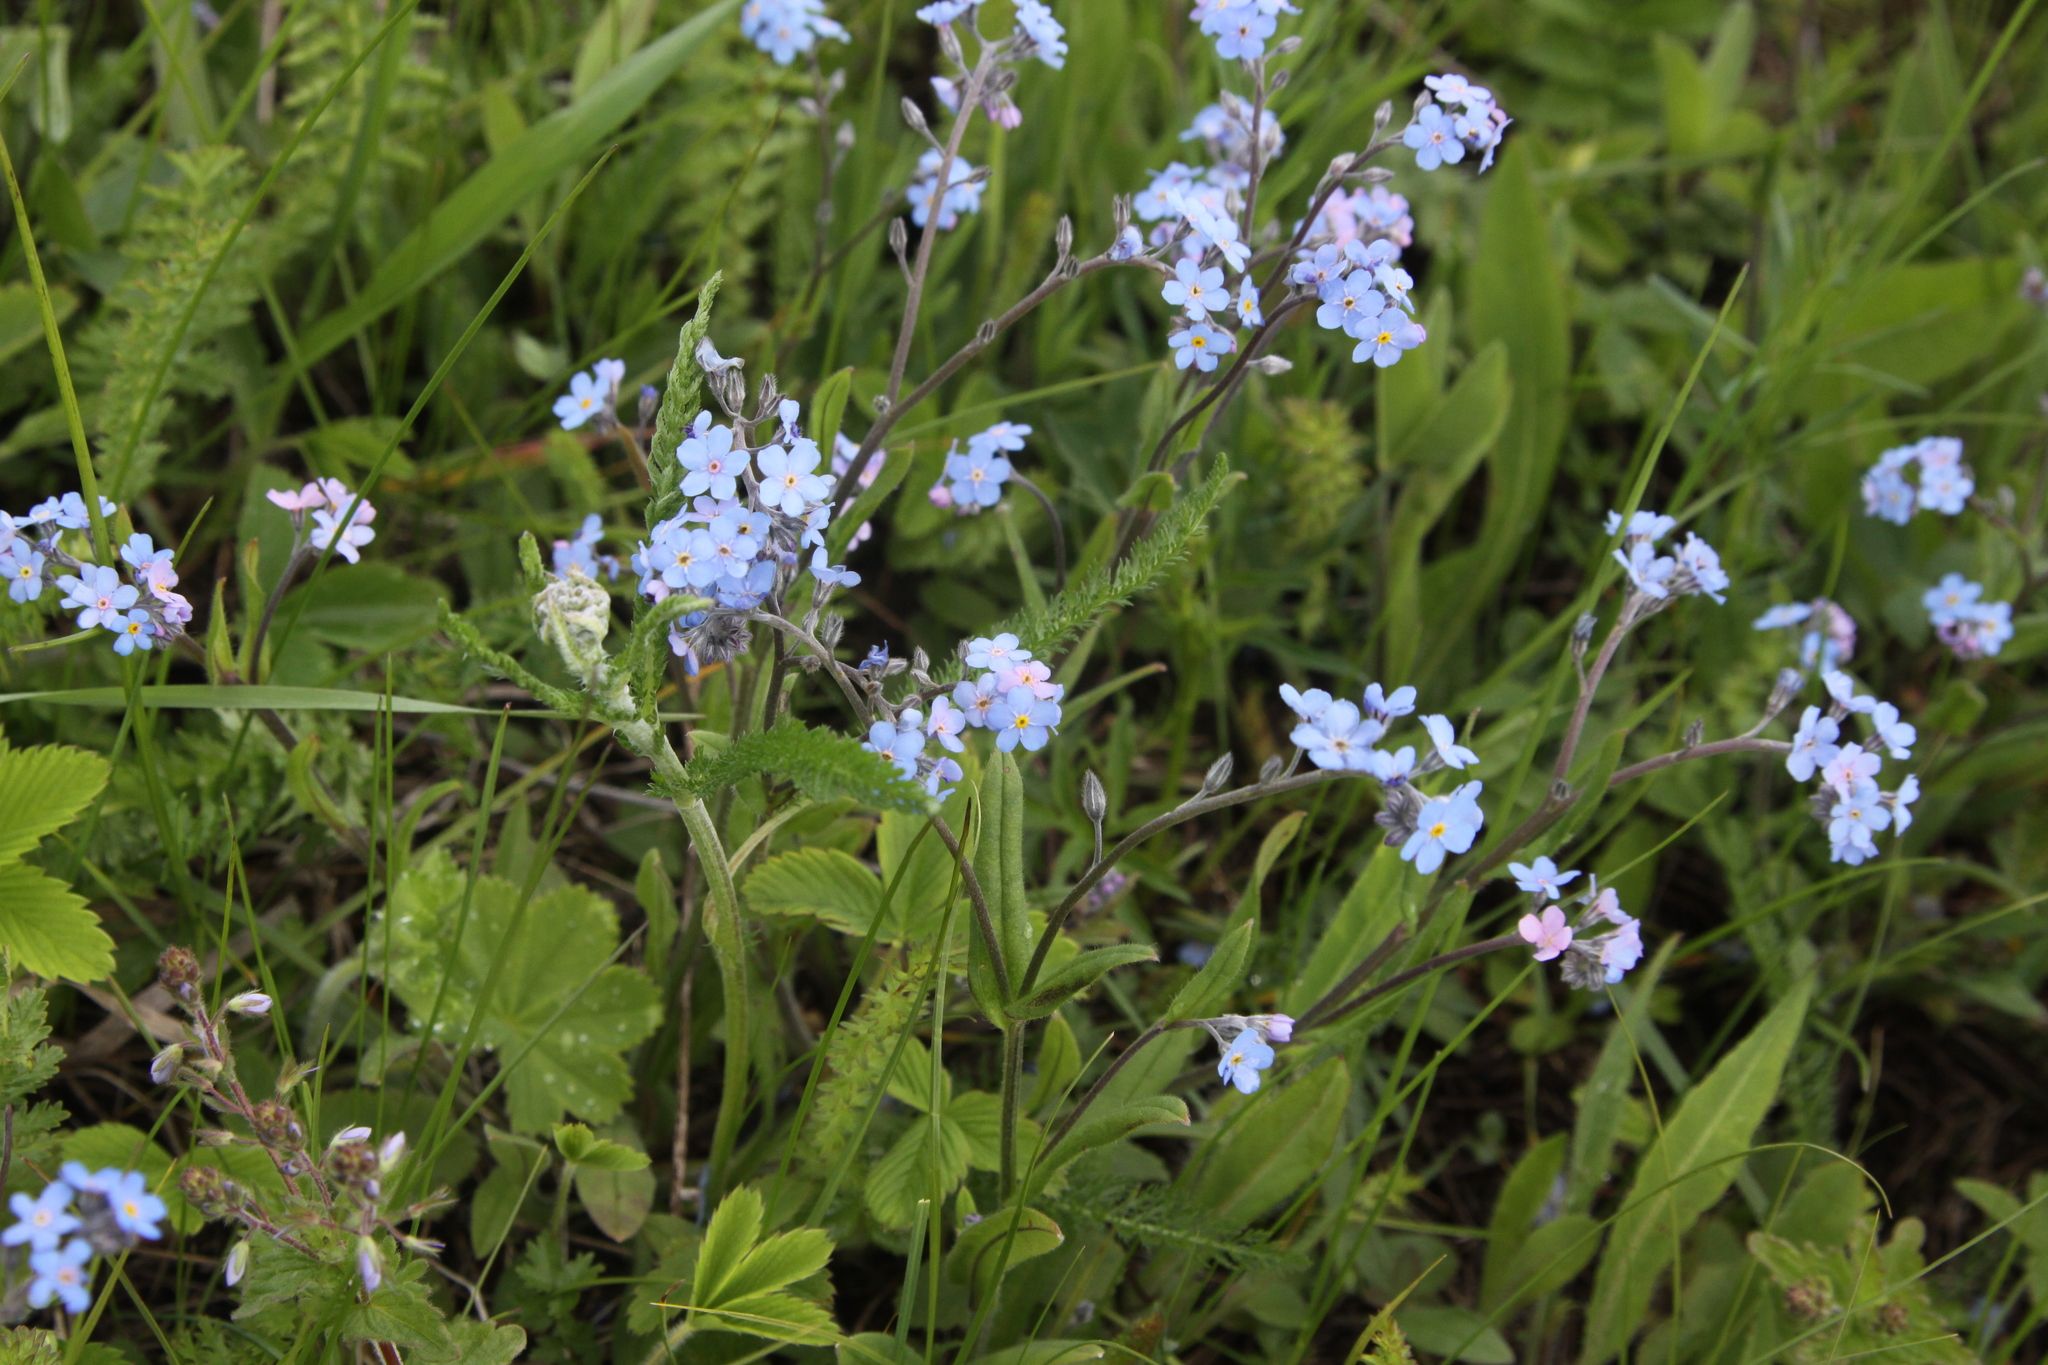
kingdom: Plantae
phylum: Tracheophyta
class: Magnoliopsida
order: Boraginales
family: Boraginaceae
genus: Myosotis
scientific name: Myosotis alpestris
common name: Alpine forget-me-not
